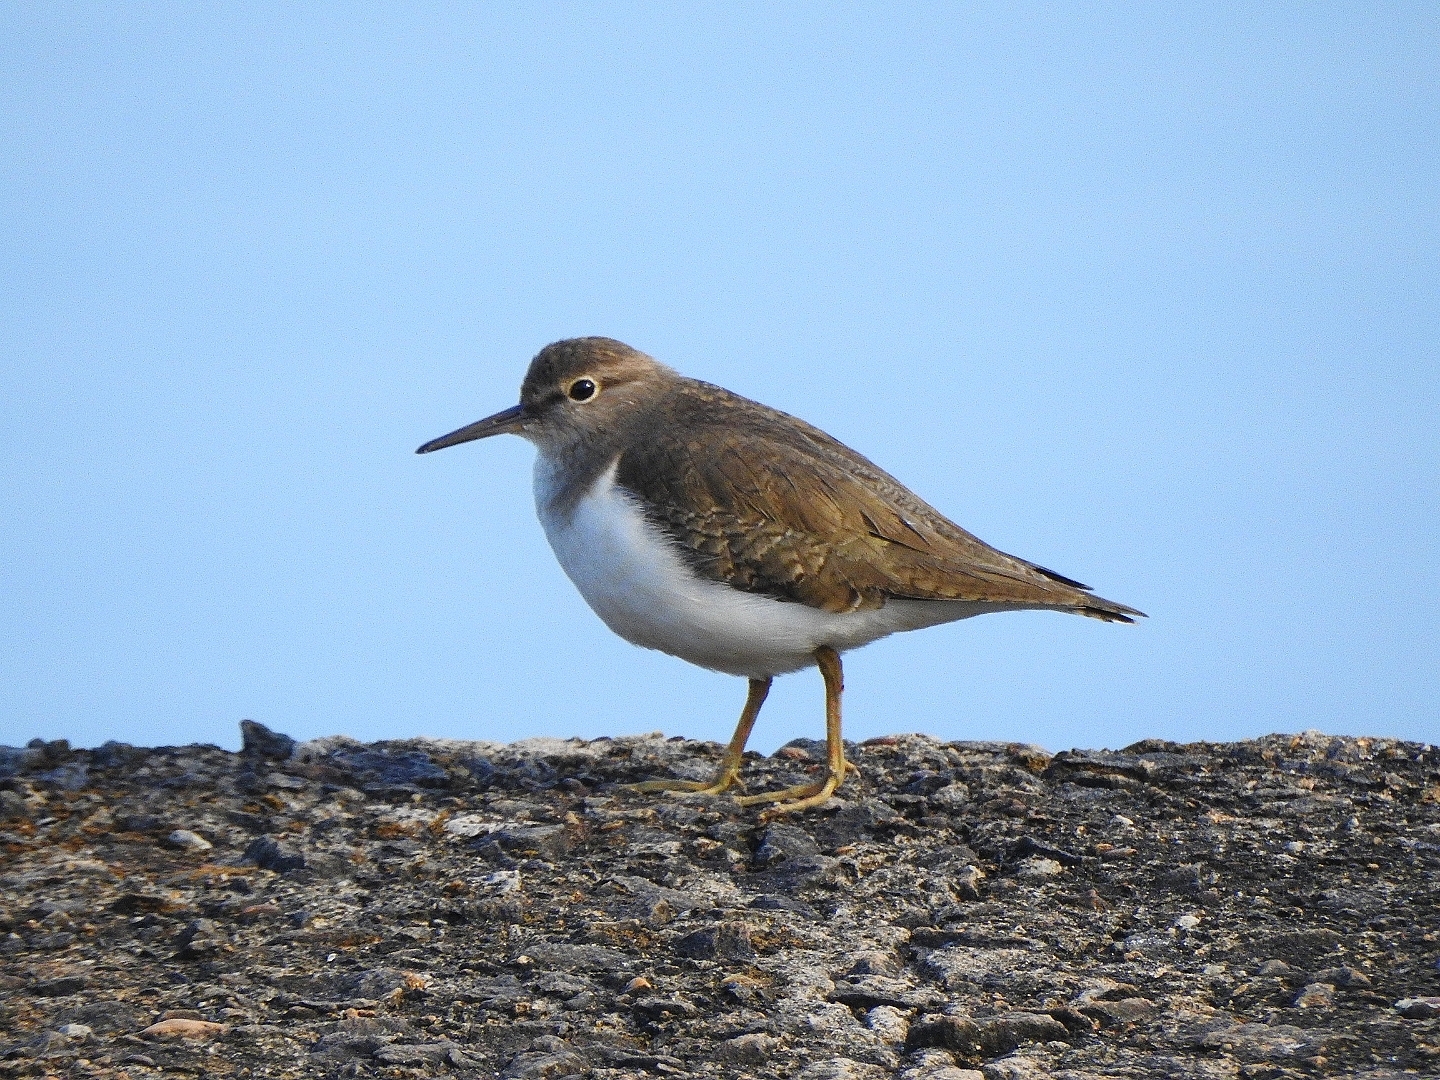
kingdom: Animalia
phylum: Chordata
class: Aves
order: Charadriiformes
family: Scolopacidae
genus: Actitis
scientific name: Actitis hypoleucos
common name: Common sandpiper
